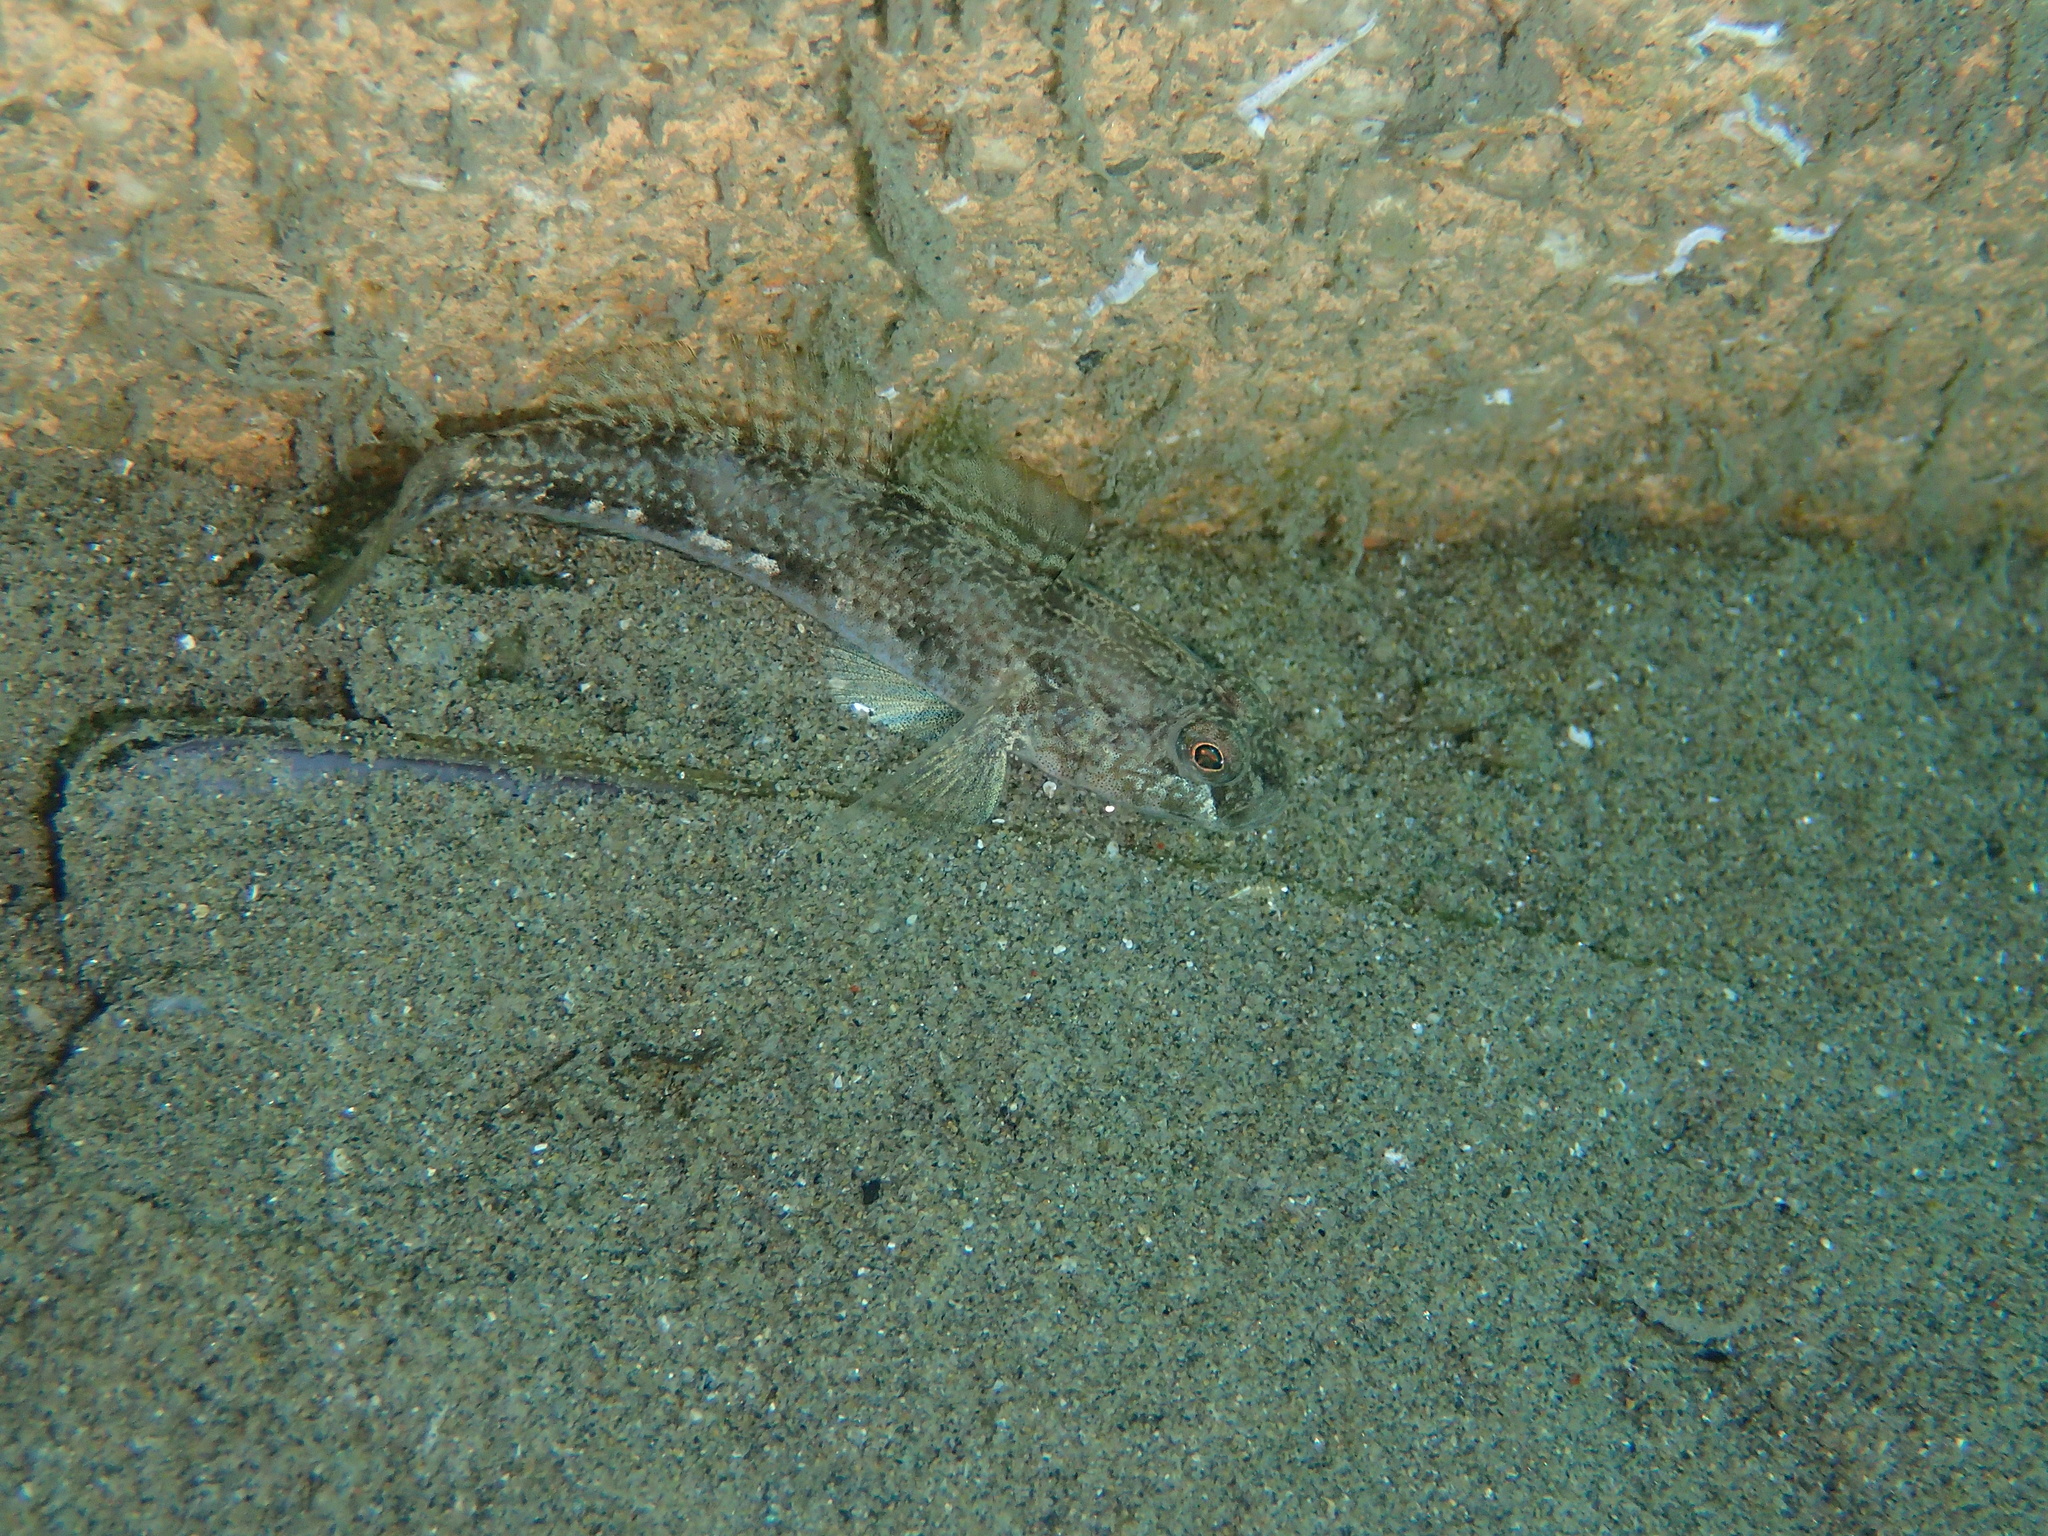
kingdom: Animalia
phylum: Chordata
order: Perciformes
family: Gobiidae
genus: Gobius
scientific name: Gobius niger
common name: Black goby
